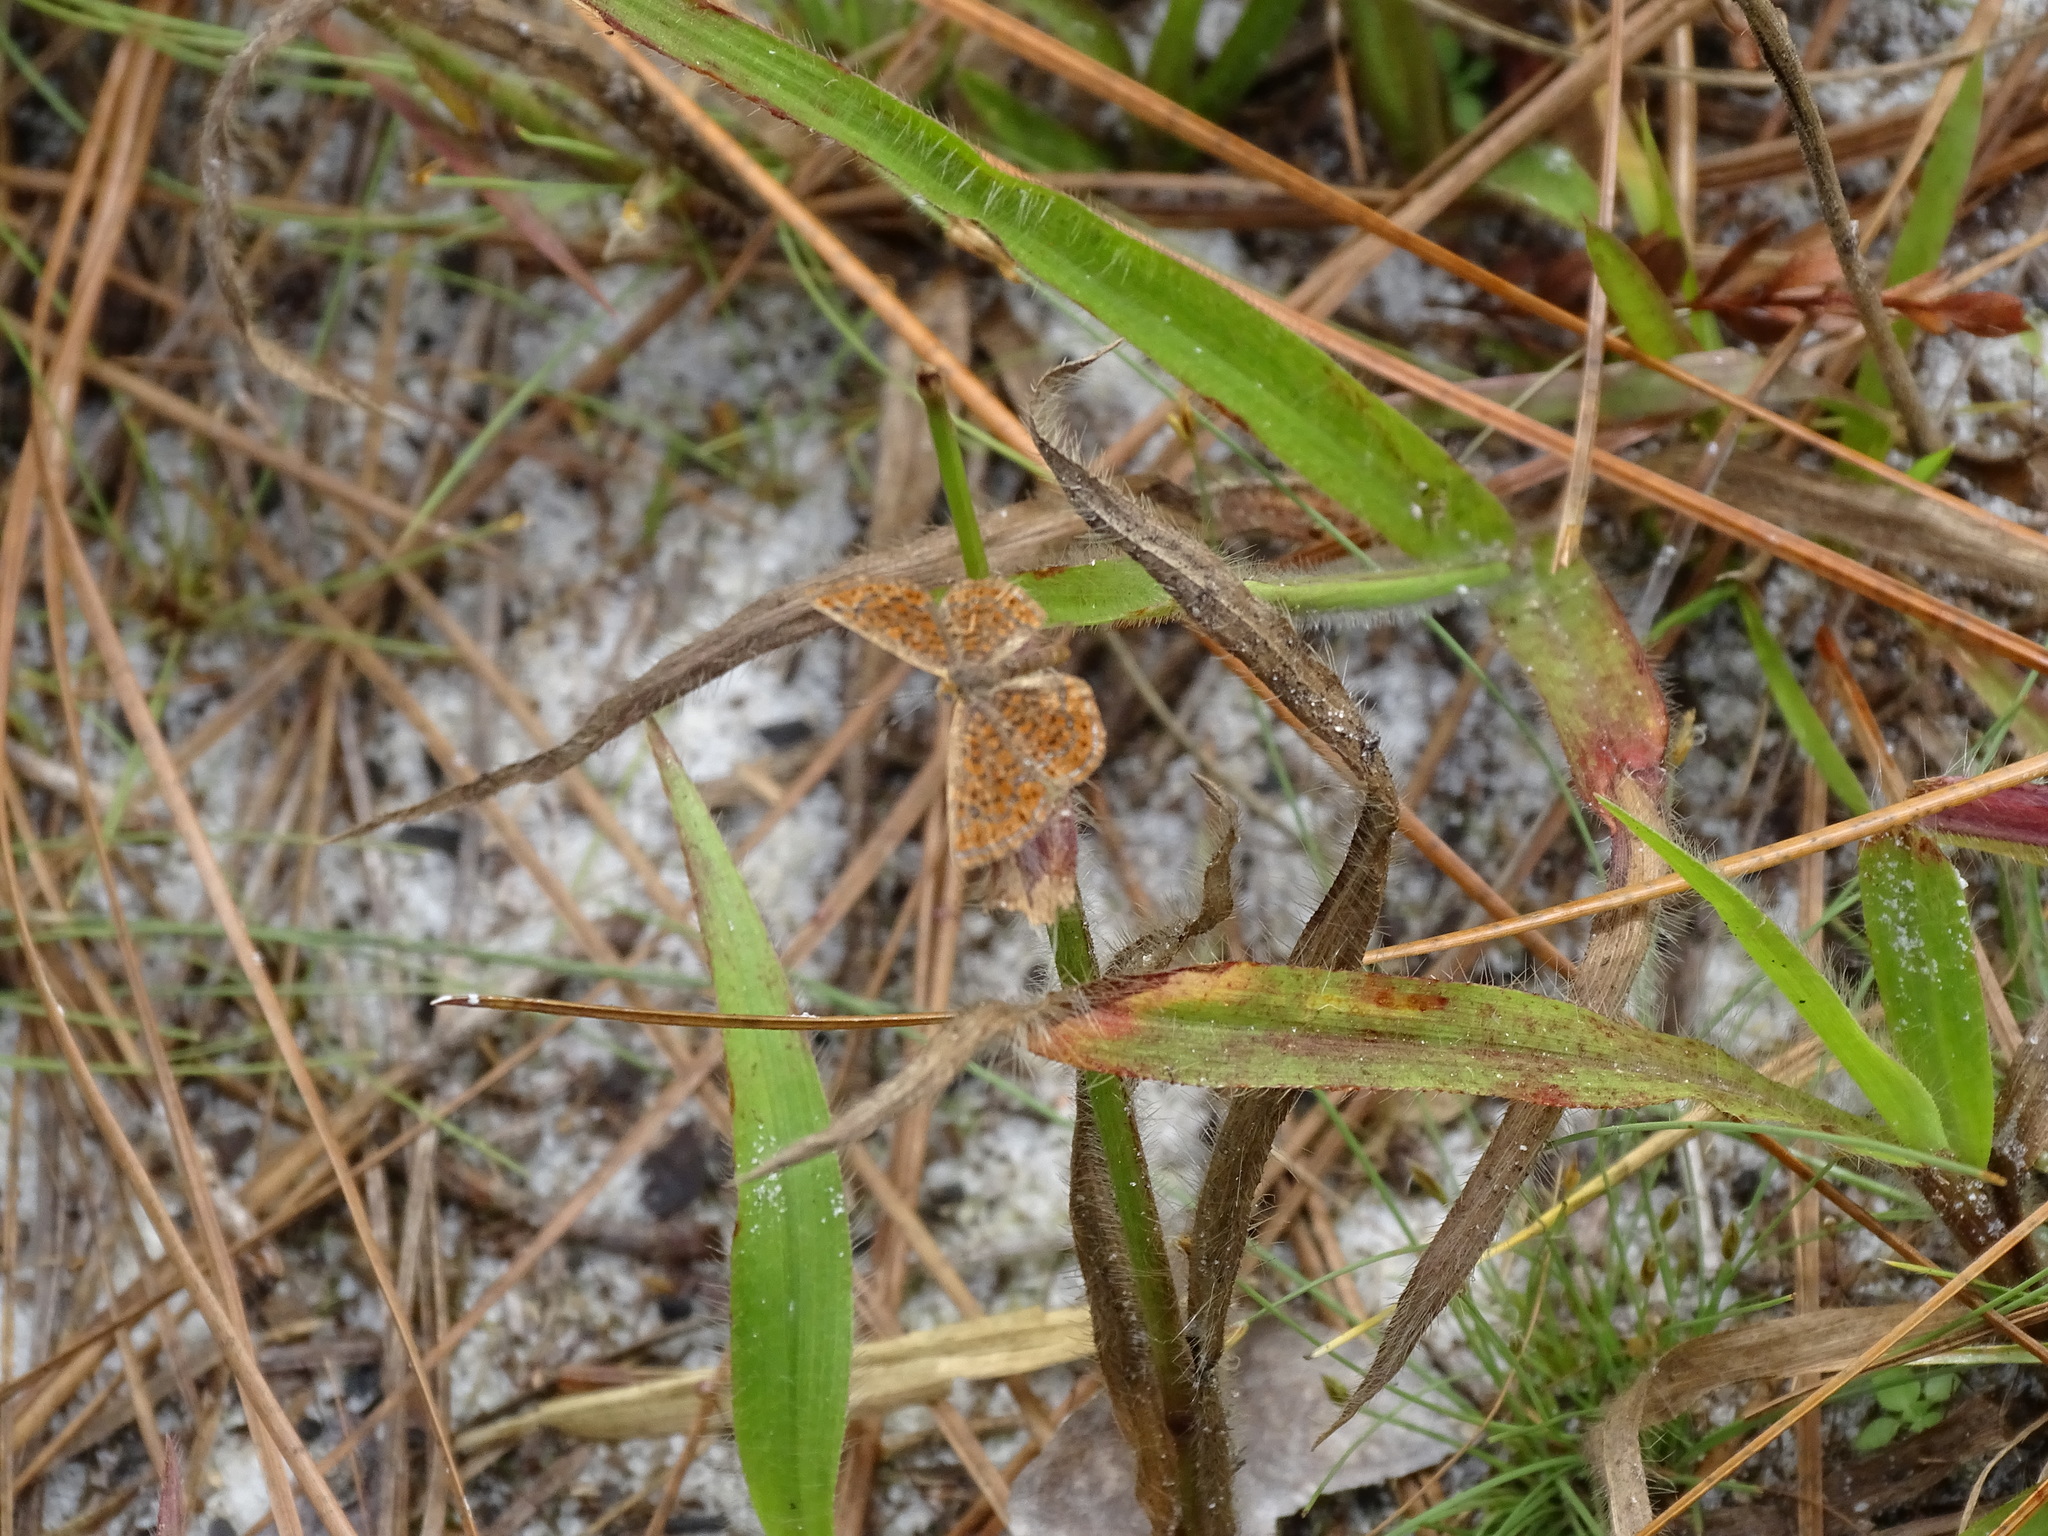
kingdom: Animalia
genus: Calephelis
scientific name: Calephelis virginiensis
